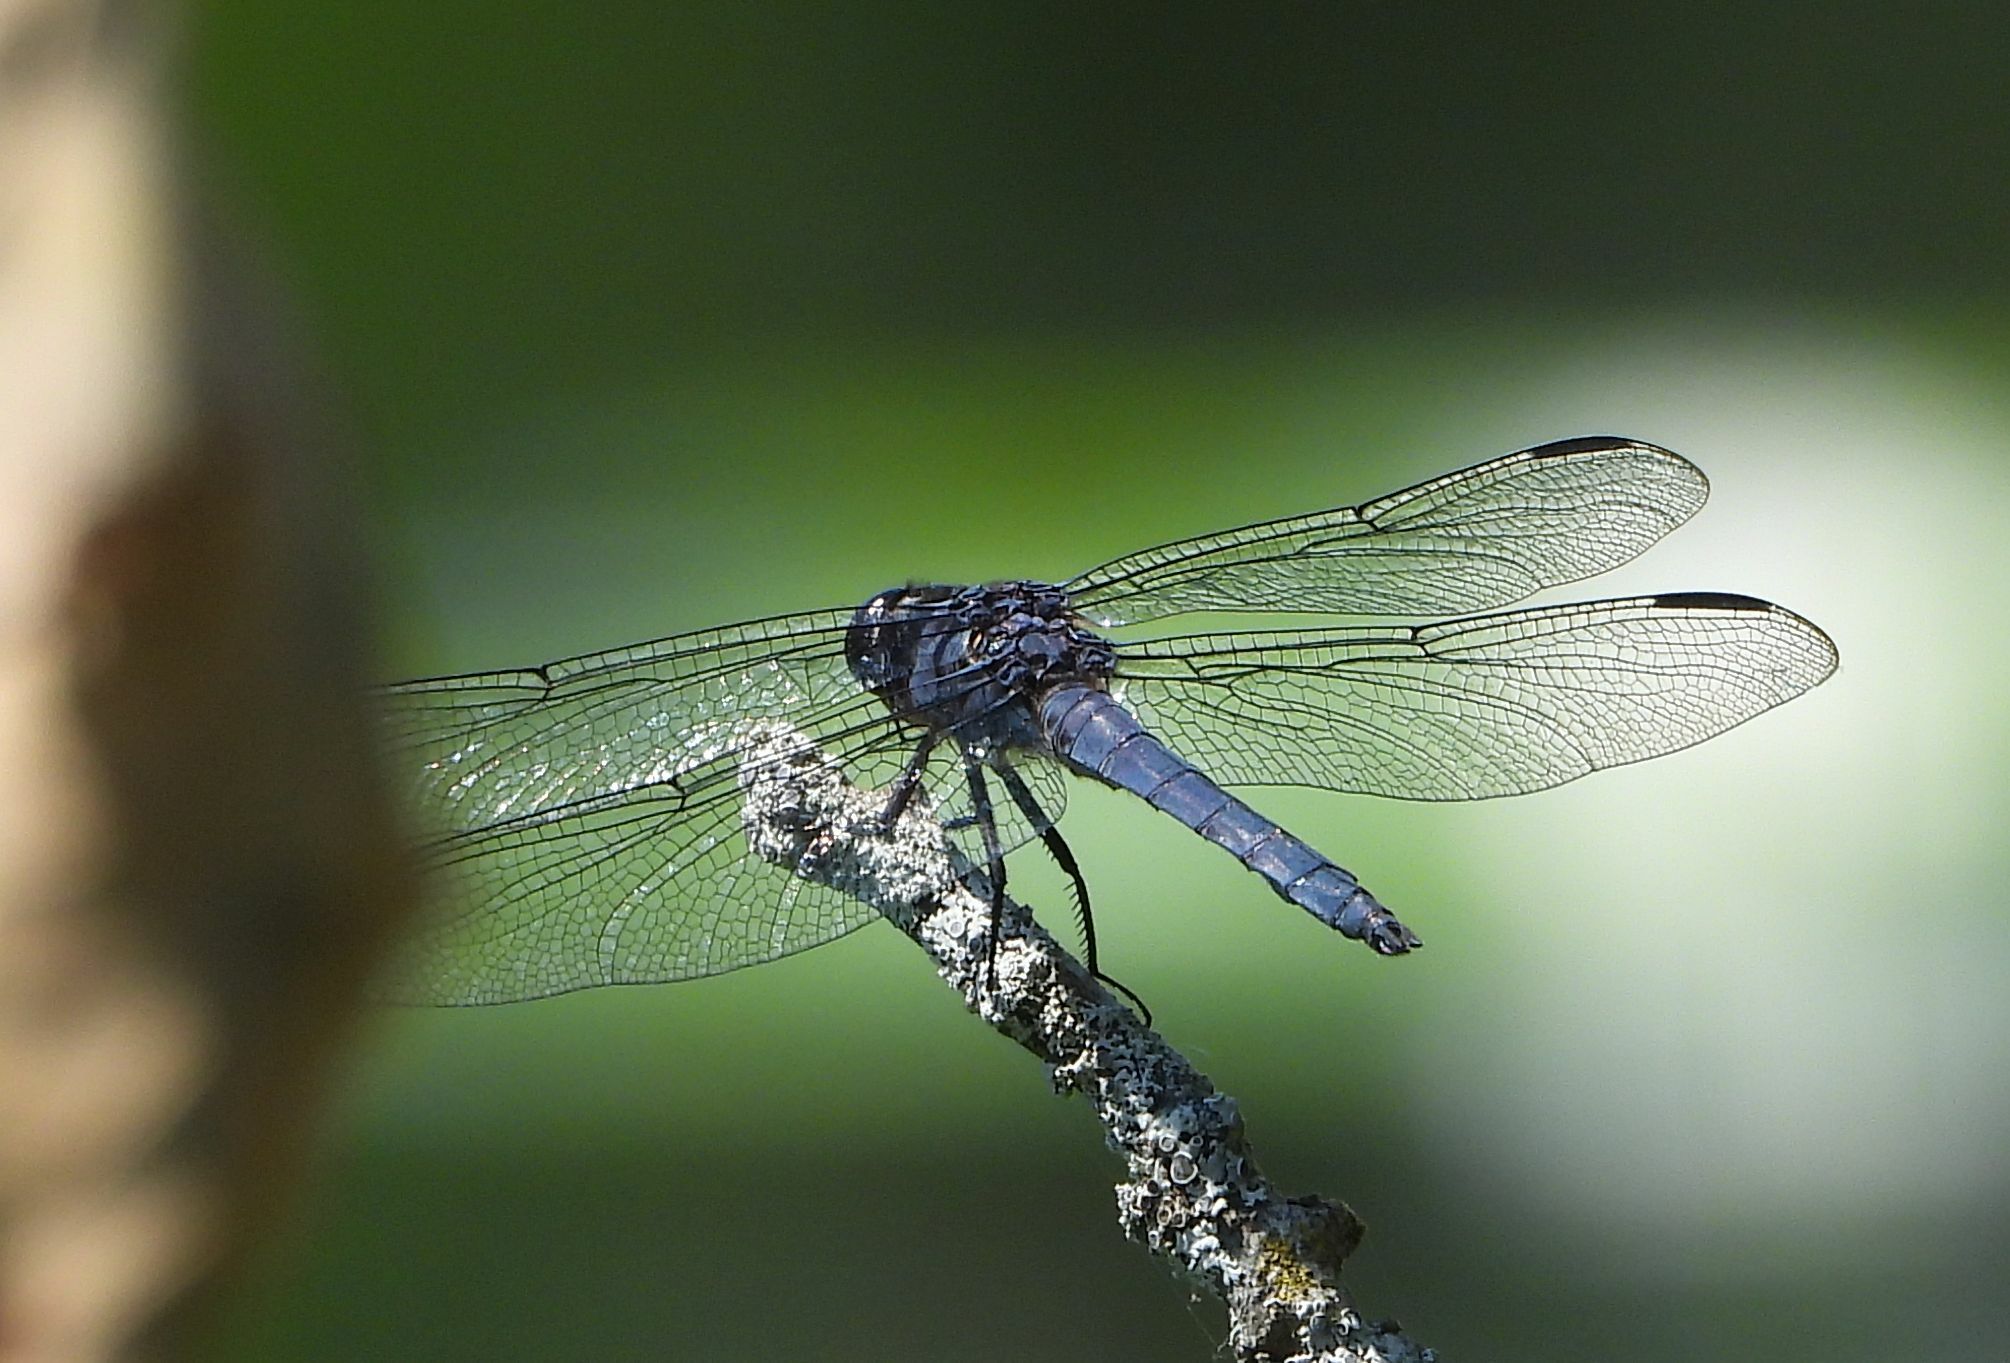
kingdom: Animalia
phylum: Arthropoda
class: Insecta
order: Odonata
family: Libellulidae
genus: Libellula
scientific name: Libellula incesta
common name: Slaty skimmer
